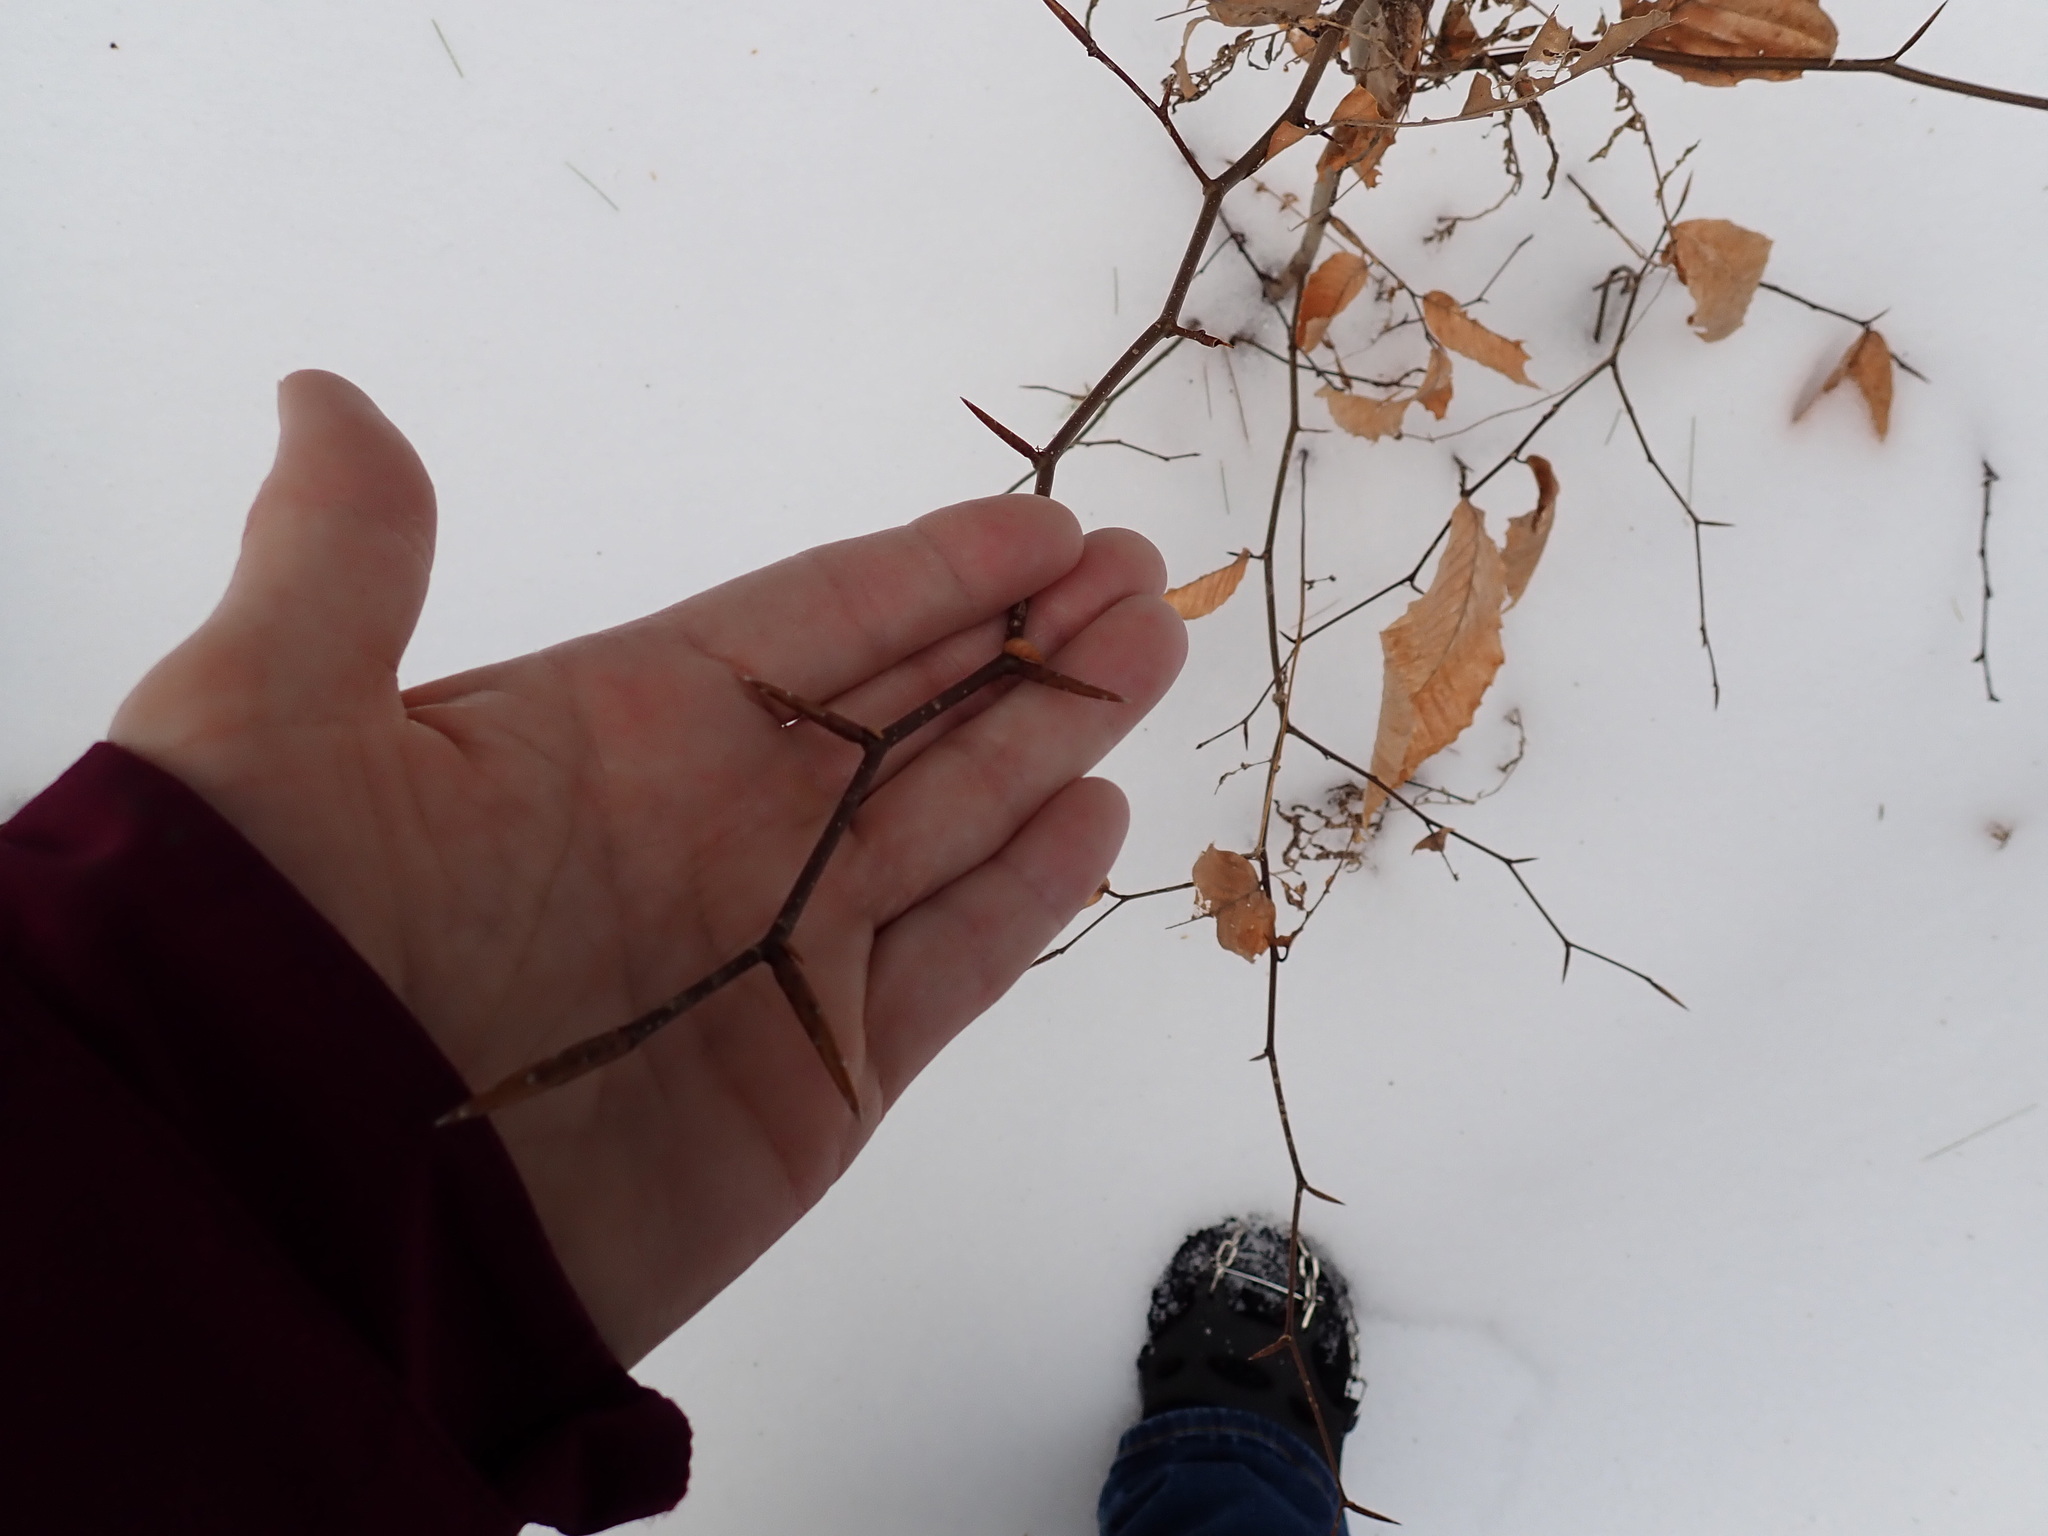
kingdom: Plantae
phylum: Tracheophyta
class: Magnoliopsida
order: Fagales
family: Fagaceae
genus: Fagus
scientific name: Fagus grandifolia
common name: American beech
